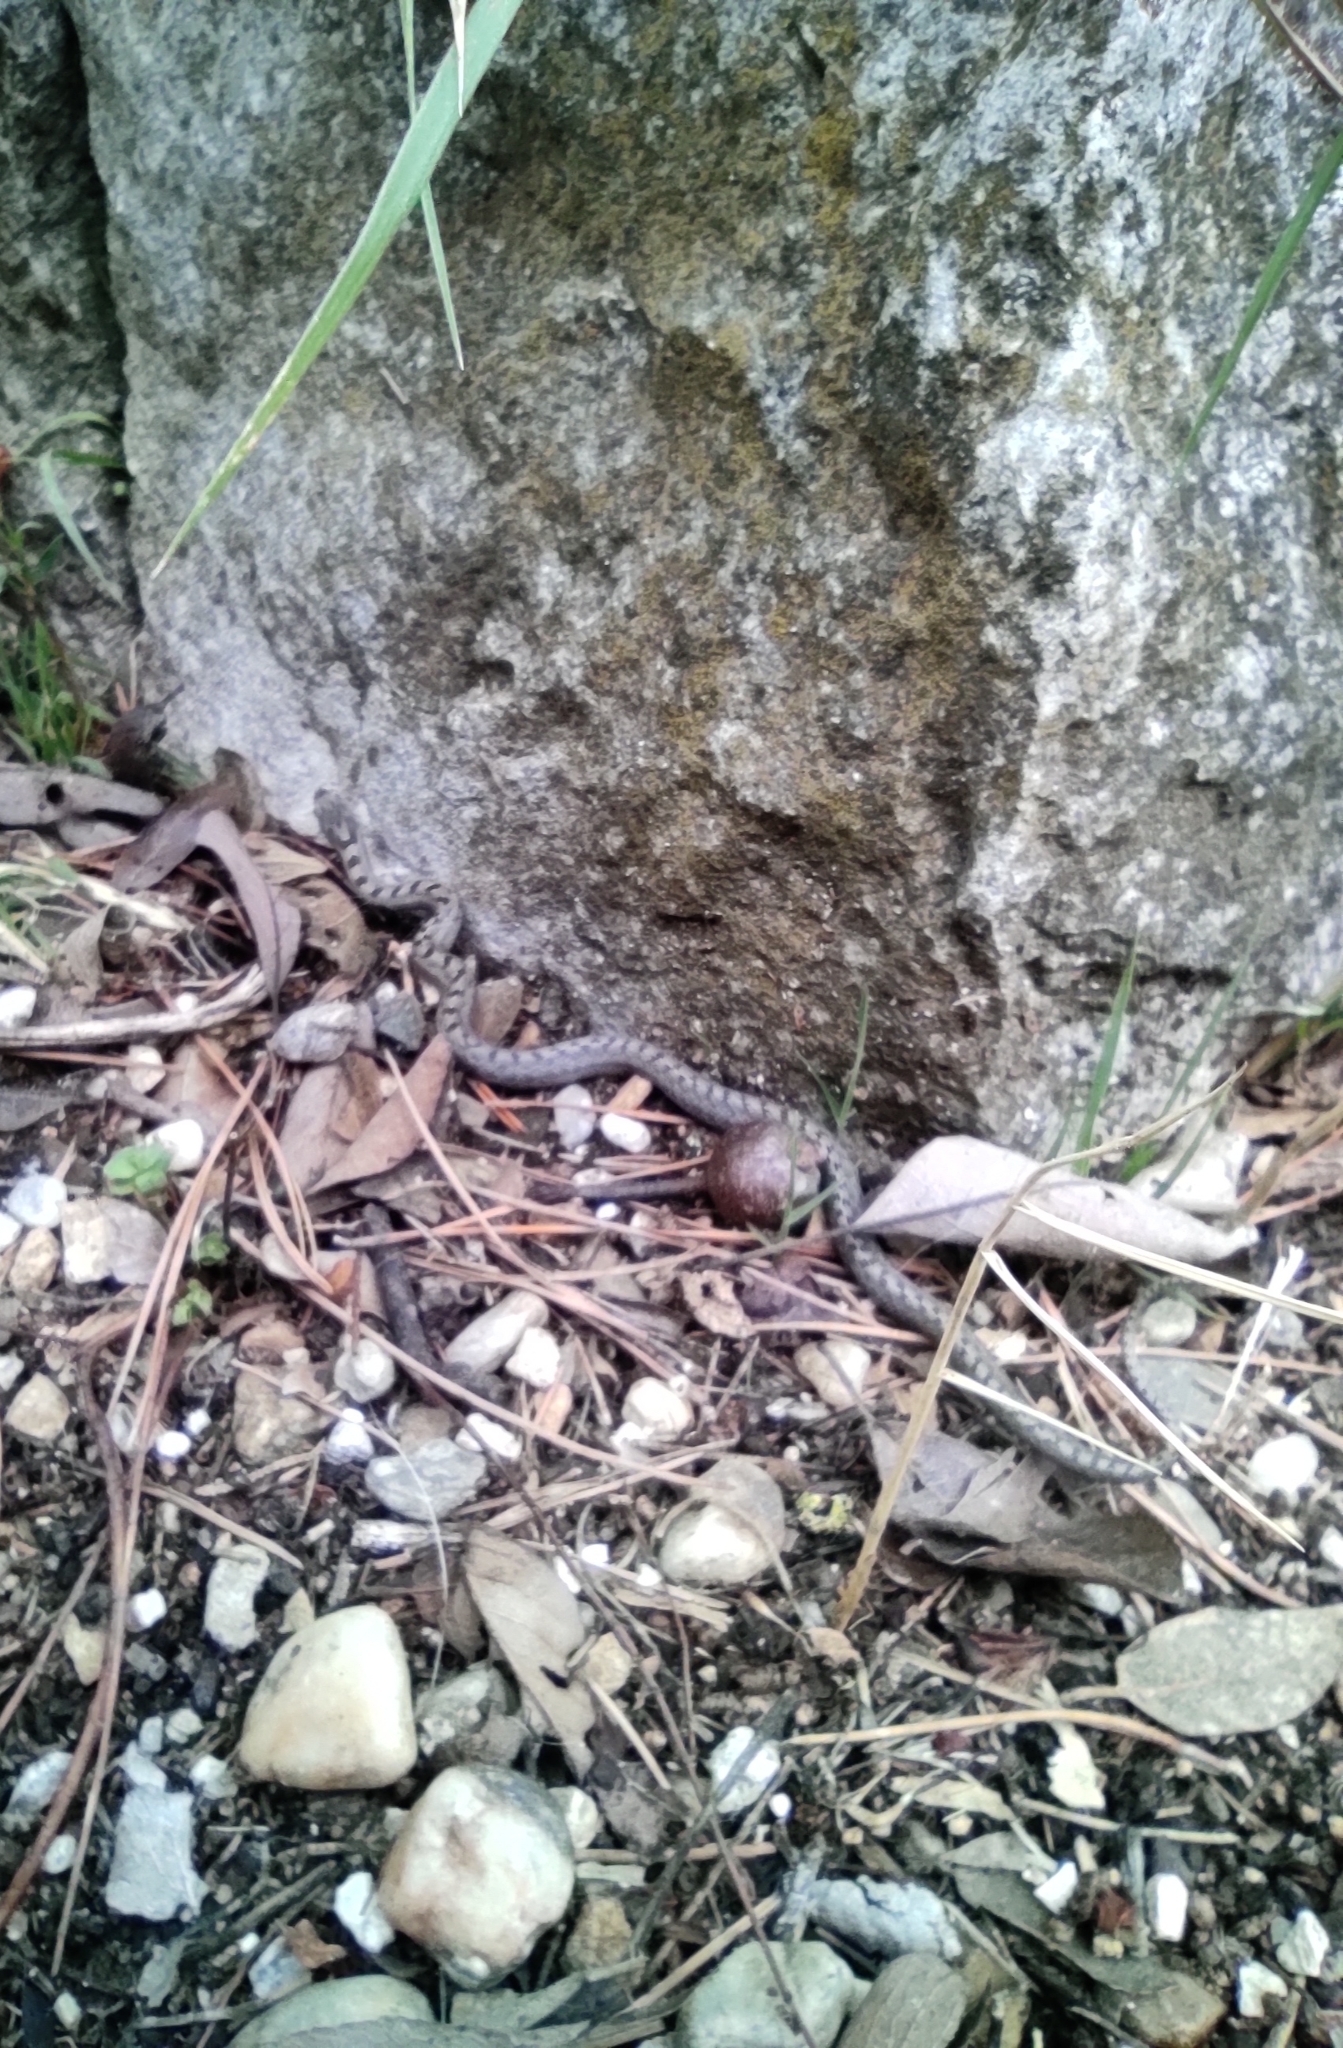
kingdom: Animalia
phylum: Chordata
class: Squamata
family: Colubridae
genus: Coronella
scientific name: Coronella girondica
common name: Southern smooth snake
